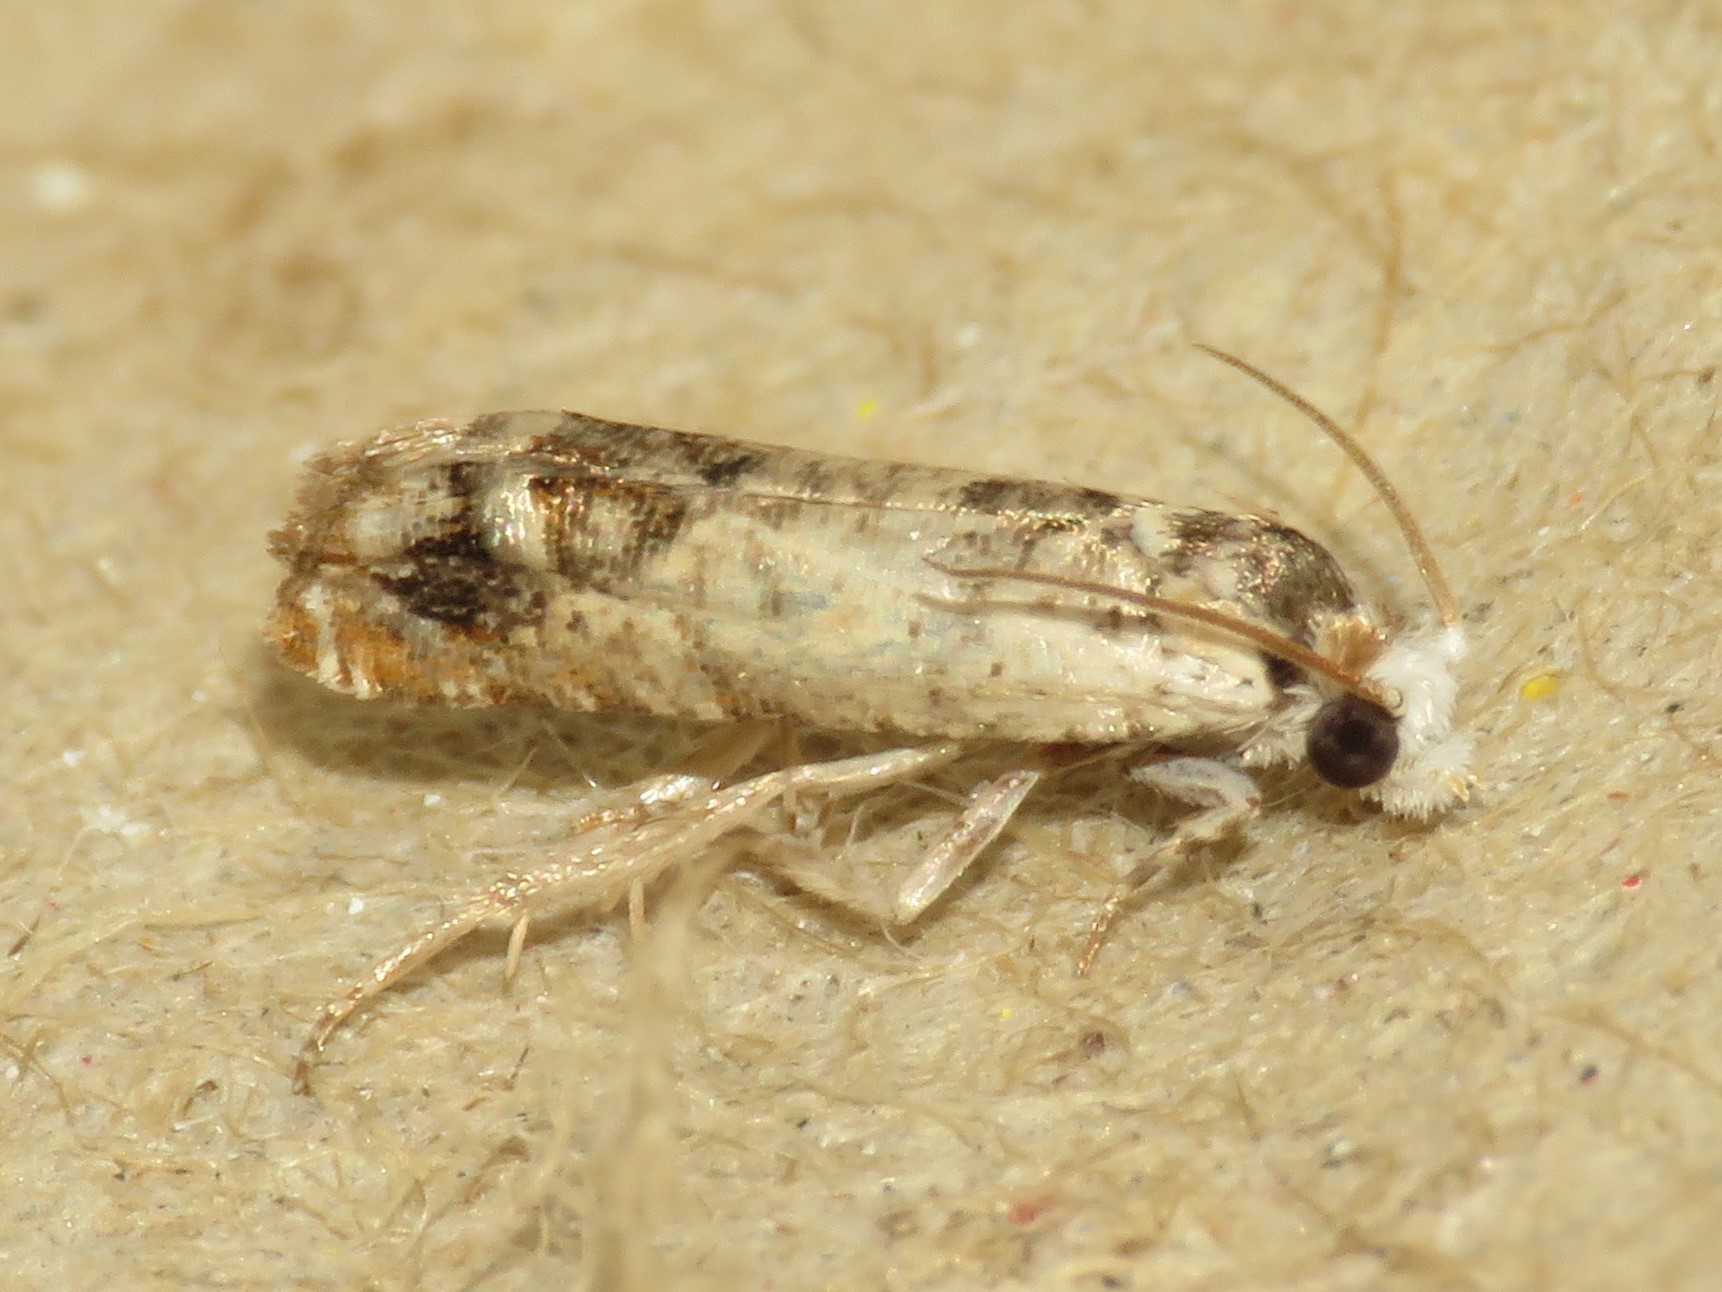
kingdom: Animalia
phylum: Arthropoda
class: Insecta
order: Lepidoptera
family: Tortricidae
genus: Eucosma
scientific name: Eucosma ornatula
